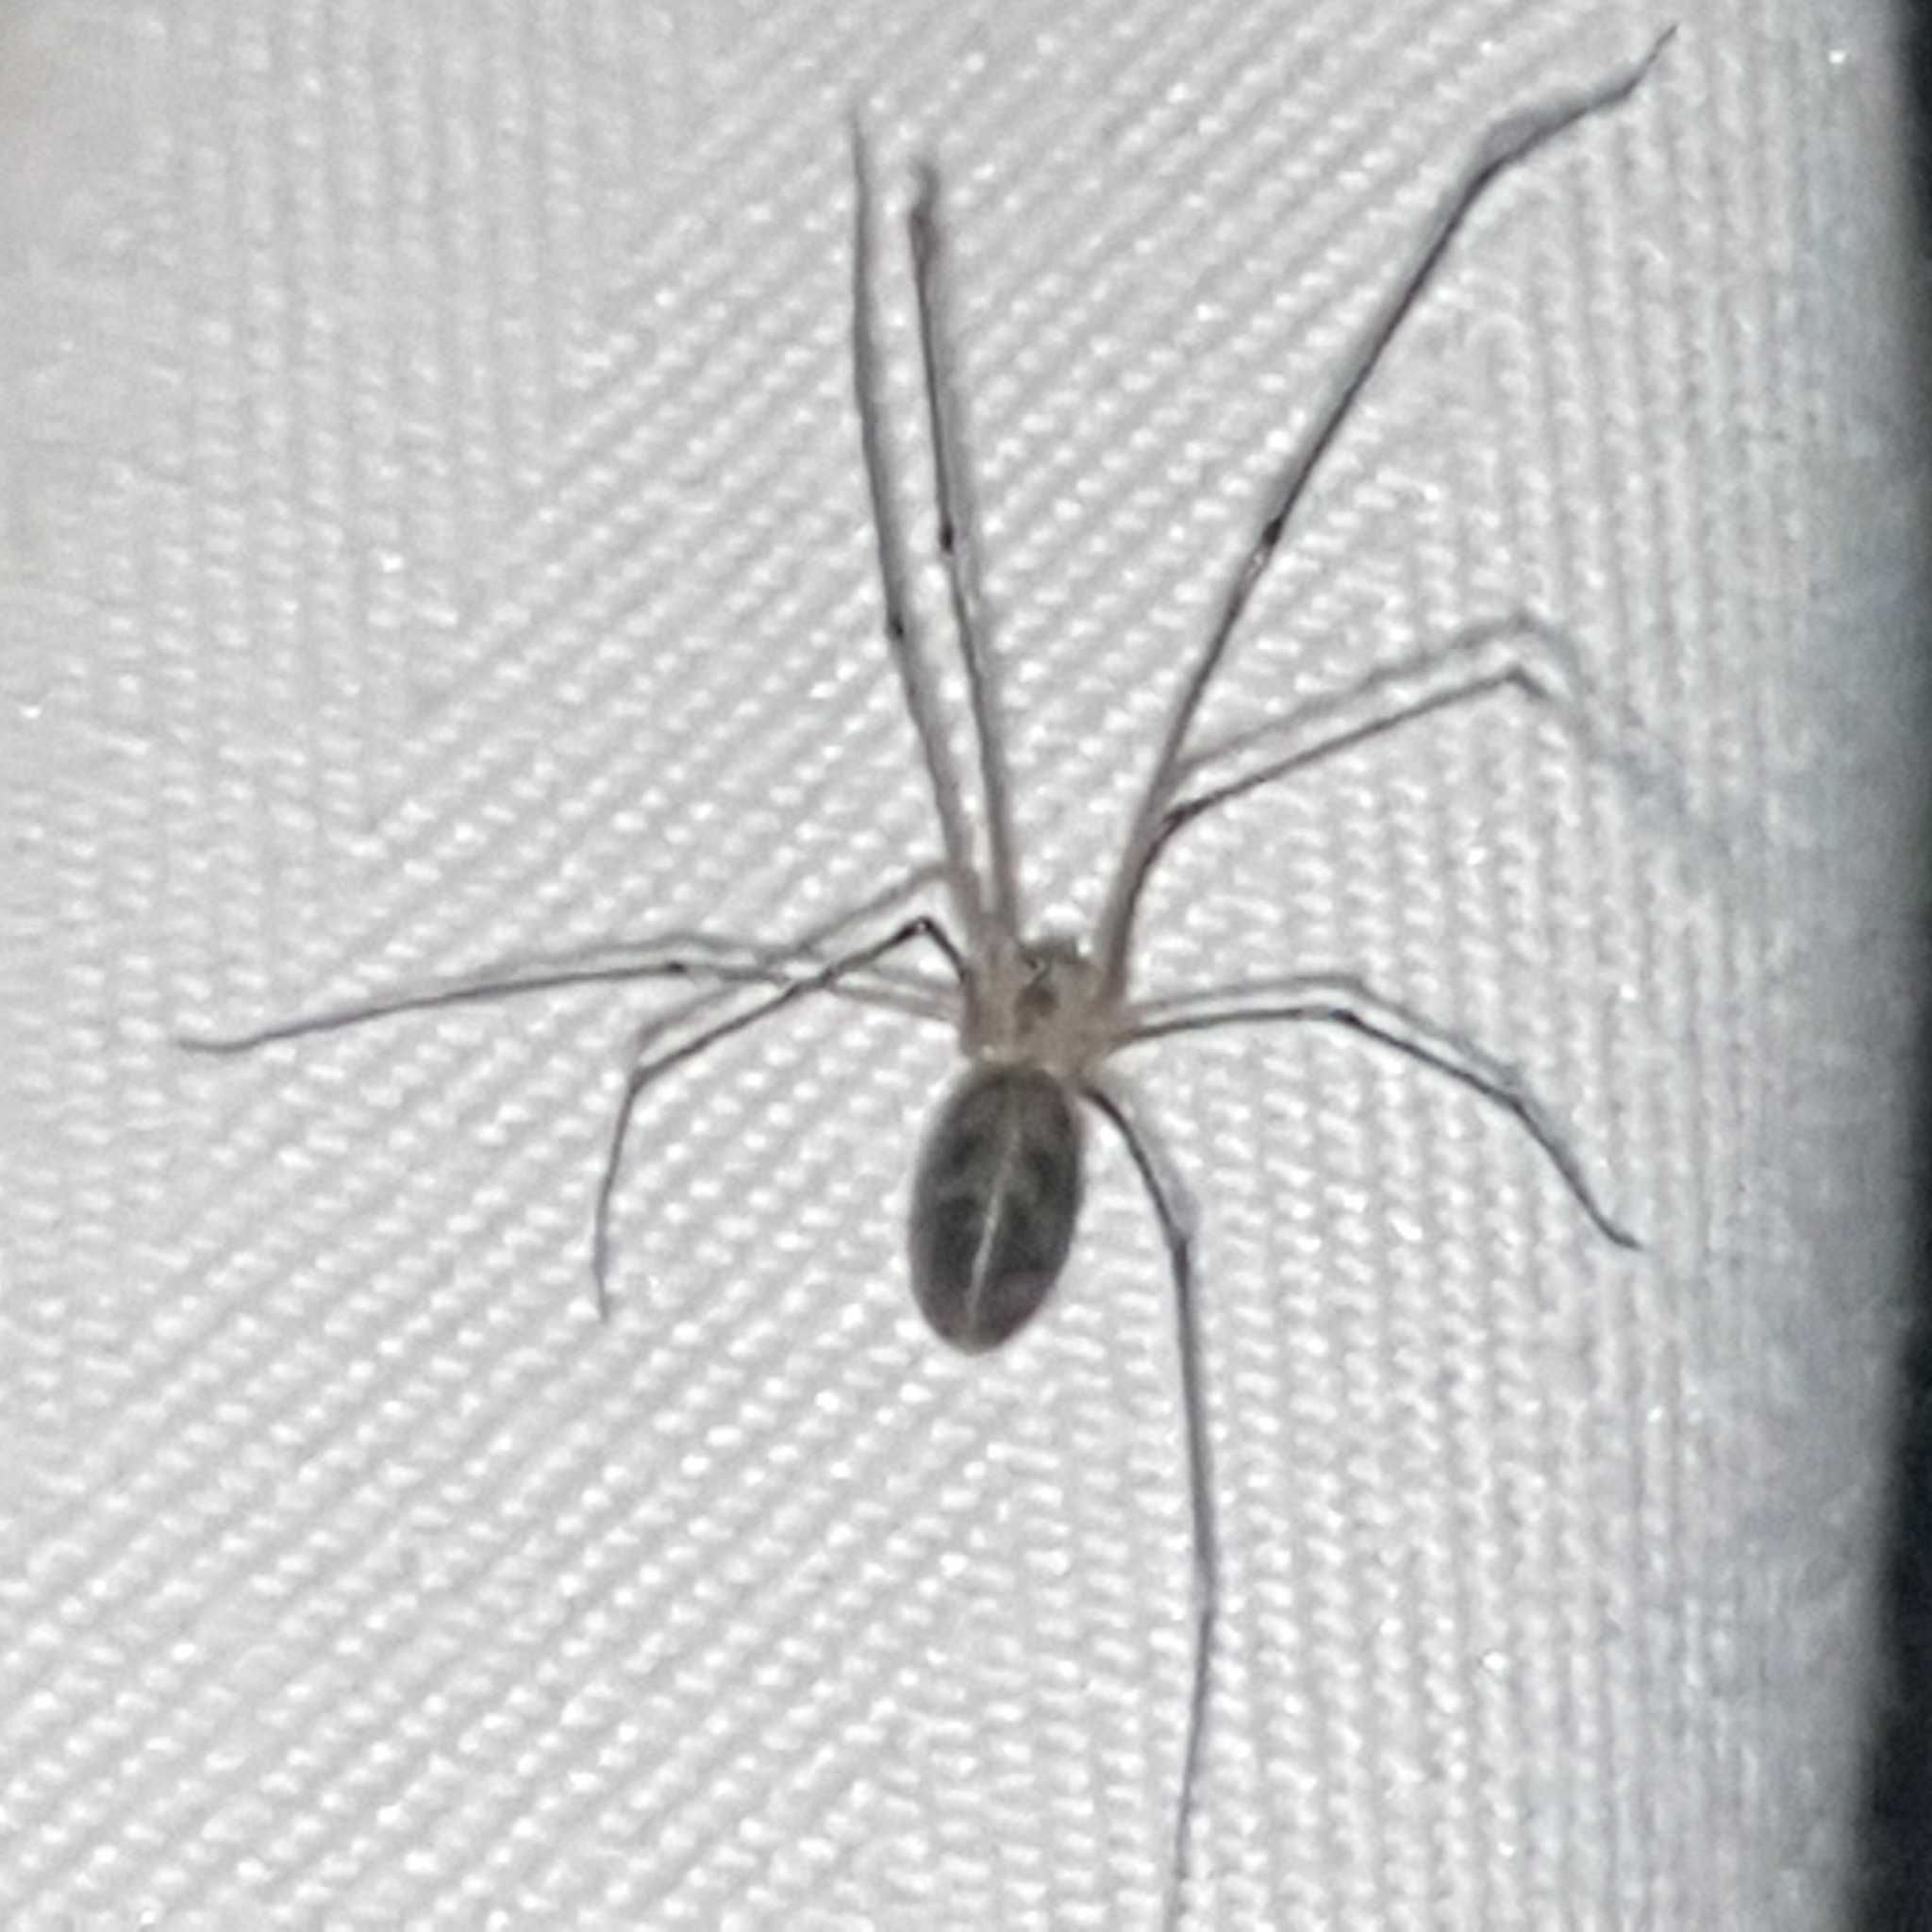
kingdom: Animalia
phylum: Arthropoda
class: Arachnida
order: Araneae
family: Pholcidae
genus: Pholcus
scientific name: Pholcus phalangioides
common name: Longbodied cellar spider
